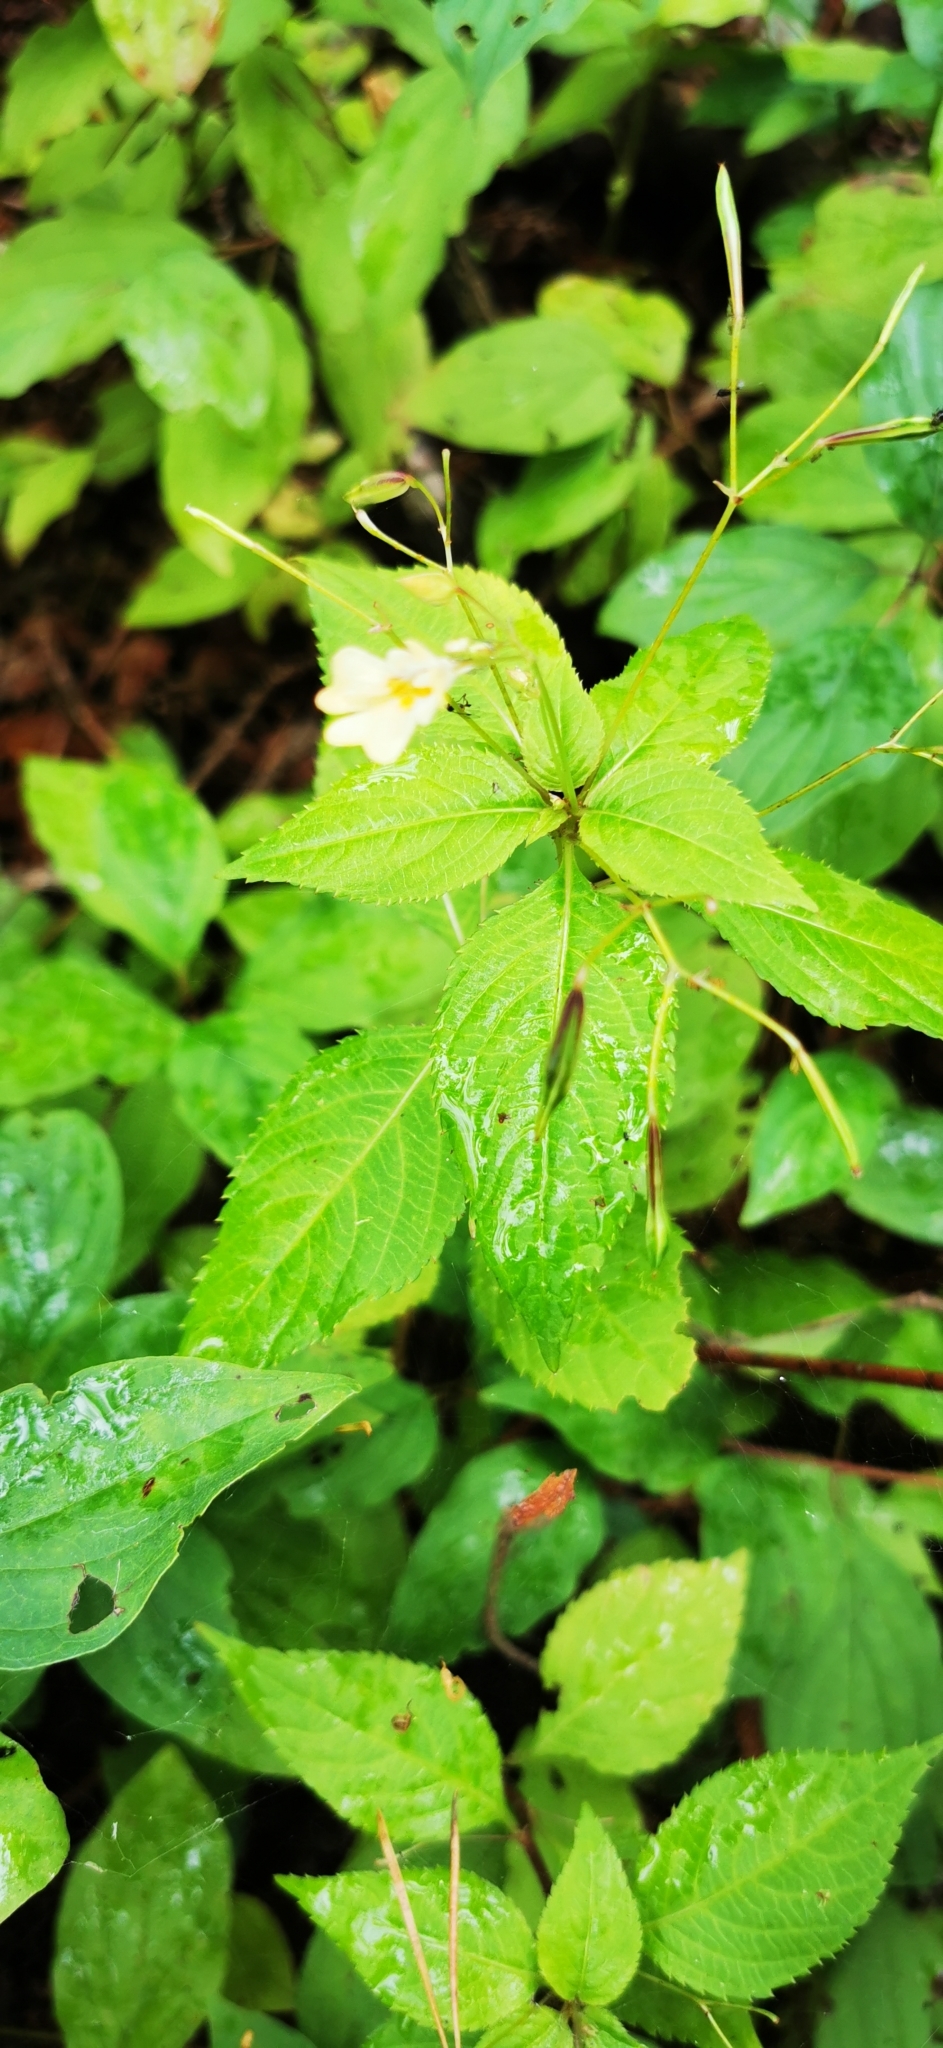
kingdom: Plantae
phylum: Tracheophyta
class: Magnoliopsida
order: Ericales
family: Balsaminaceae
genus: Impatiens
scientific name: Impatiens parviflora
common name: Small balsam
